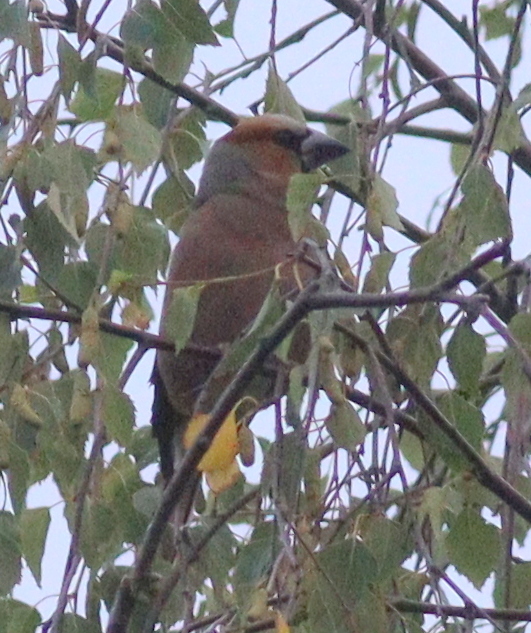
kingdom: Animalia
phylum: Chordata
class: Aves
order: Passeriformes
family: Fringillidae
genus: Coccothraustes
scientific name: Coccothraustes coccothraustes
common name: Hawfinch
